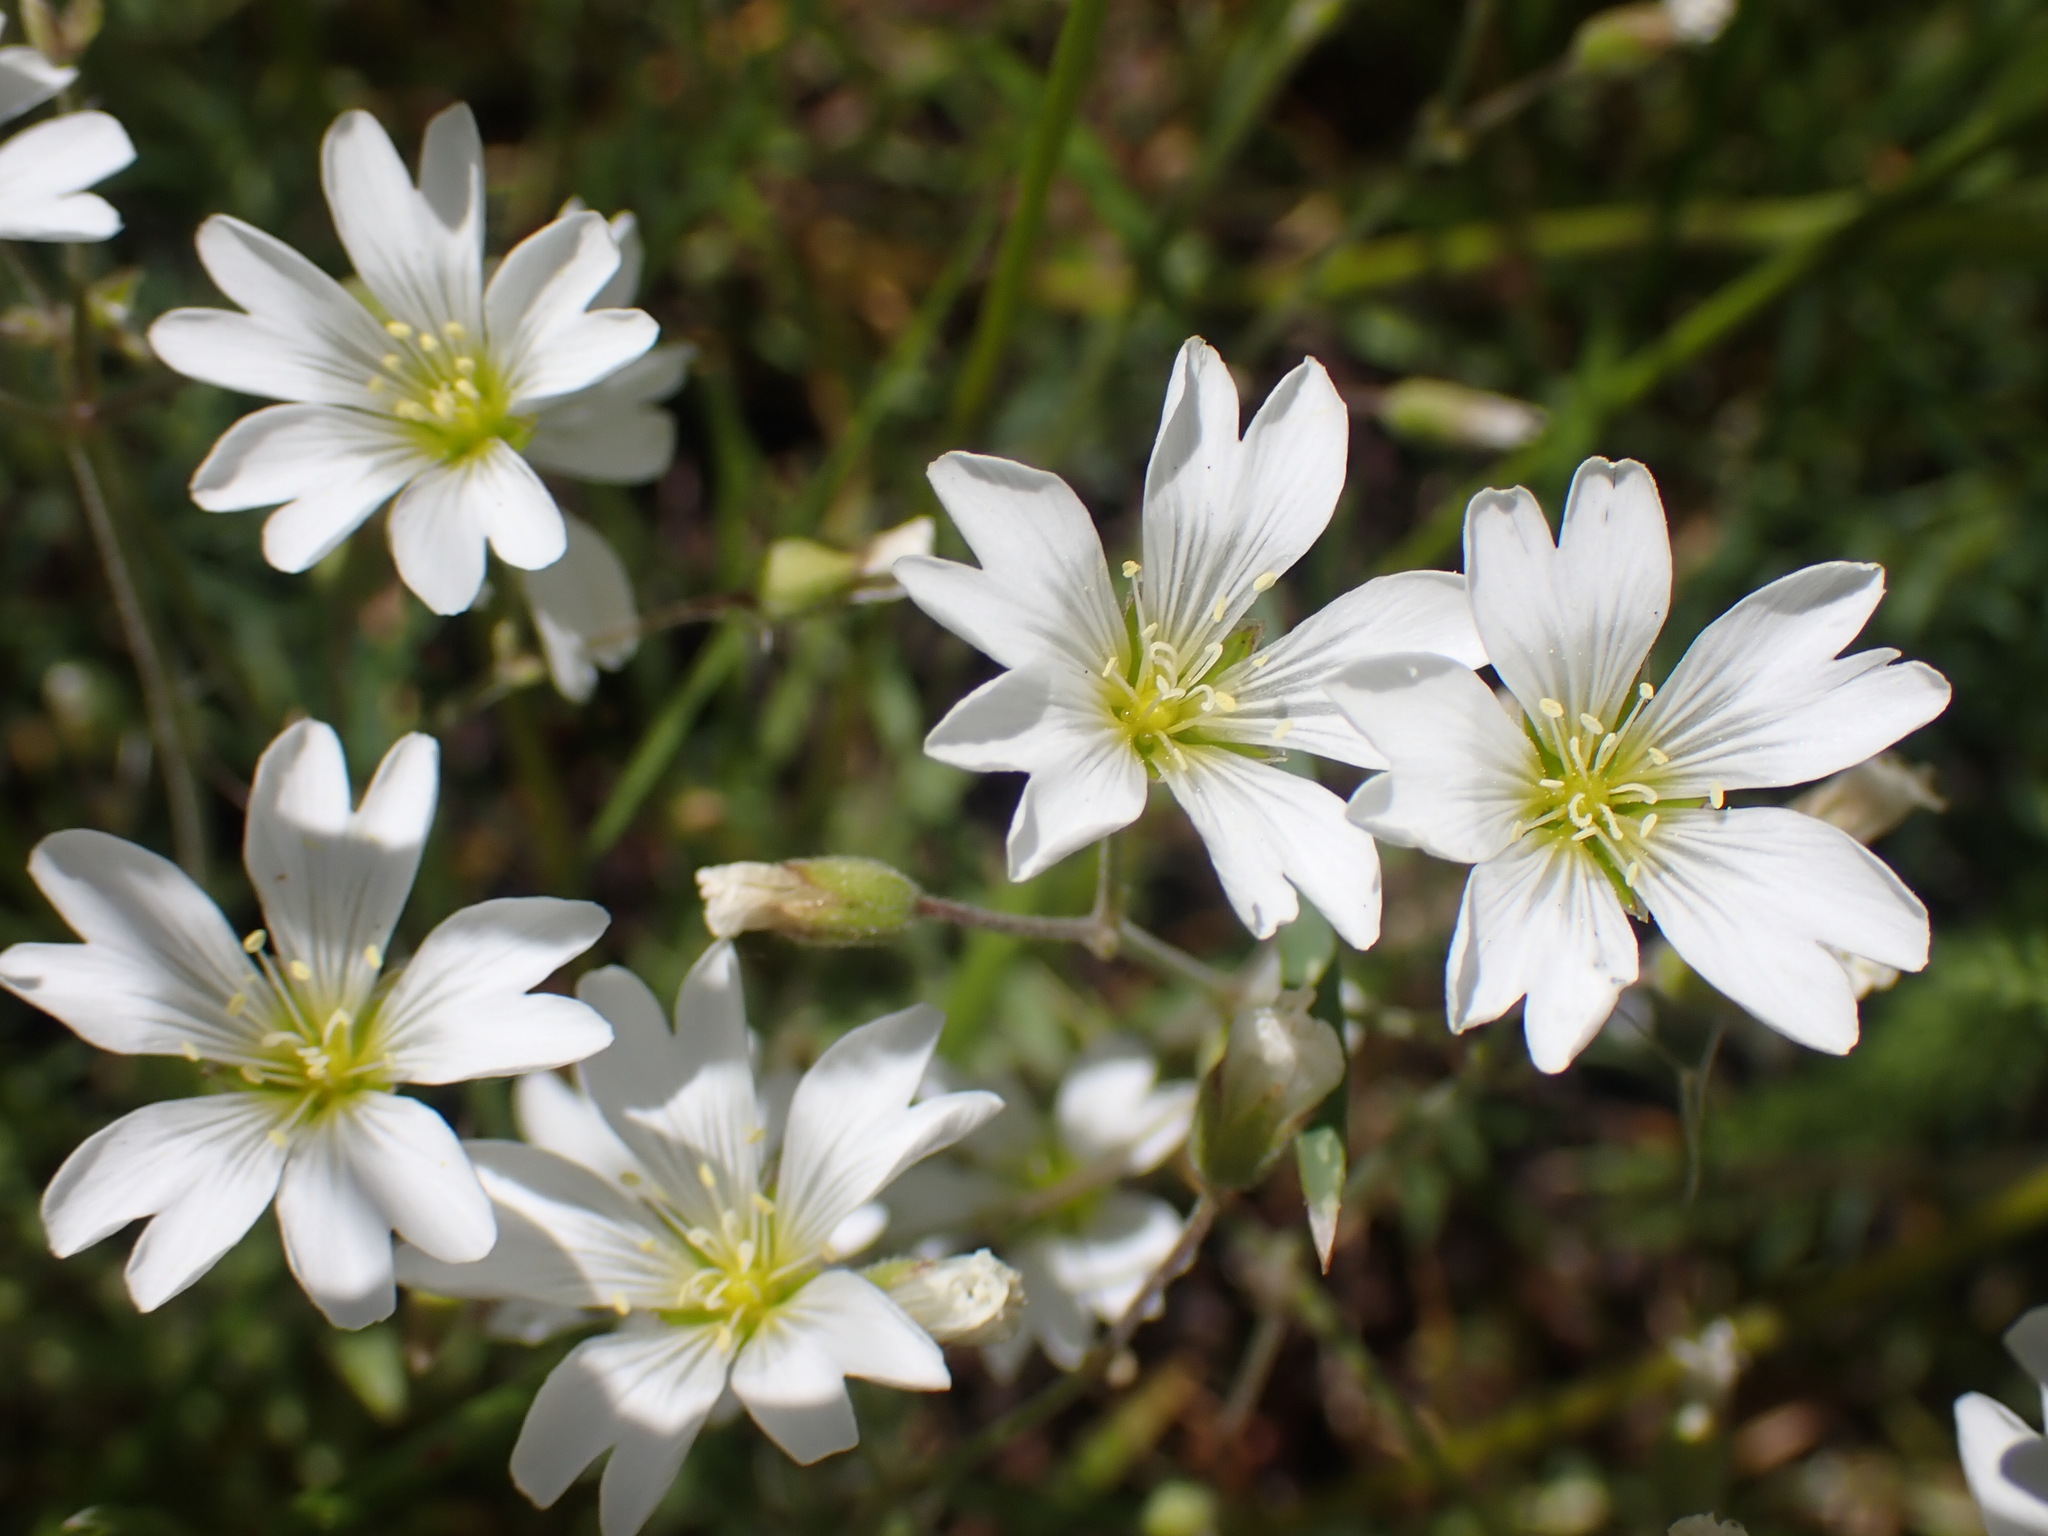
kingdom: Plantae
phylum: Tracheophyta
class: Magnoliopsida
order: Caryophyllales
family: Caryophyllaceae
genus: Cerastium
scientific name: Cerastium arvense
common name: Field mouse-ear
